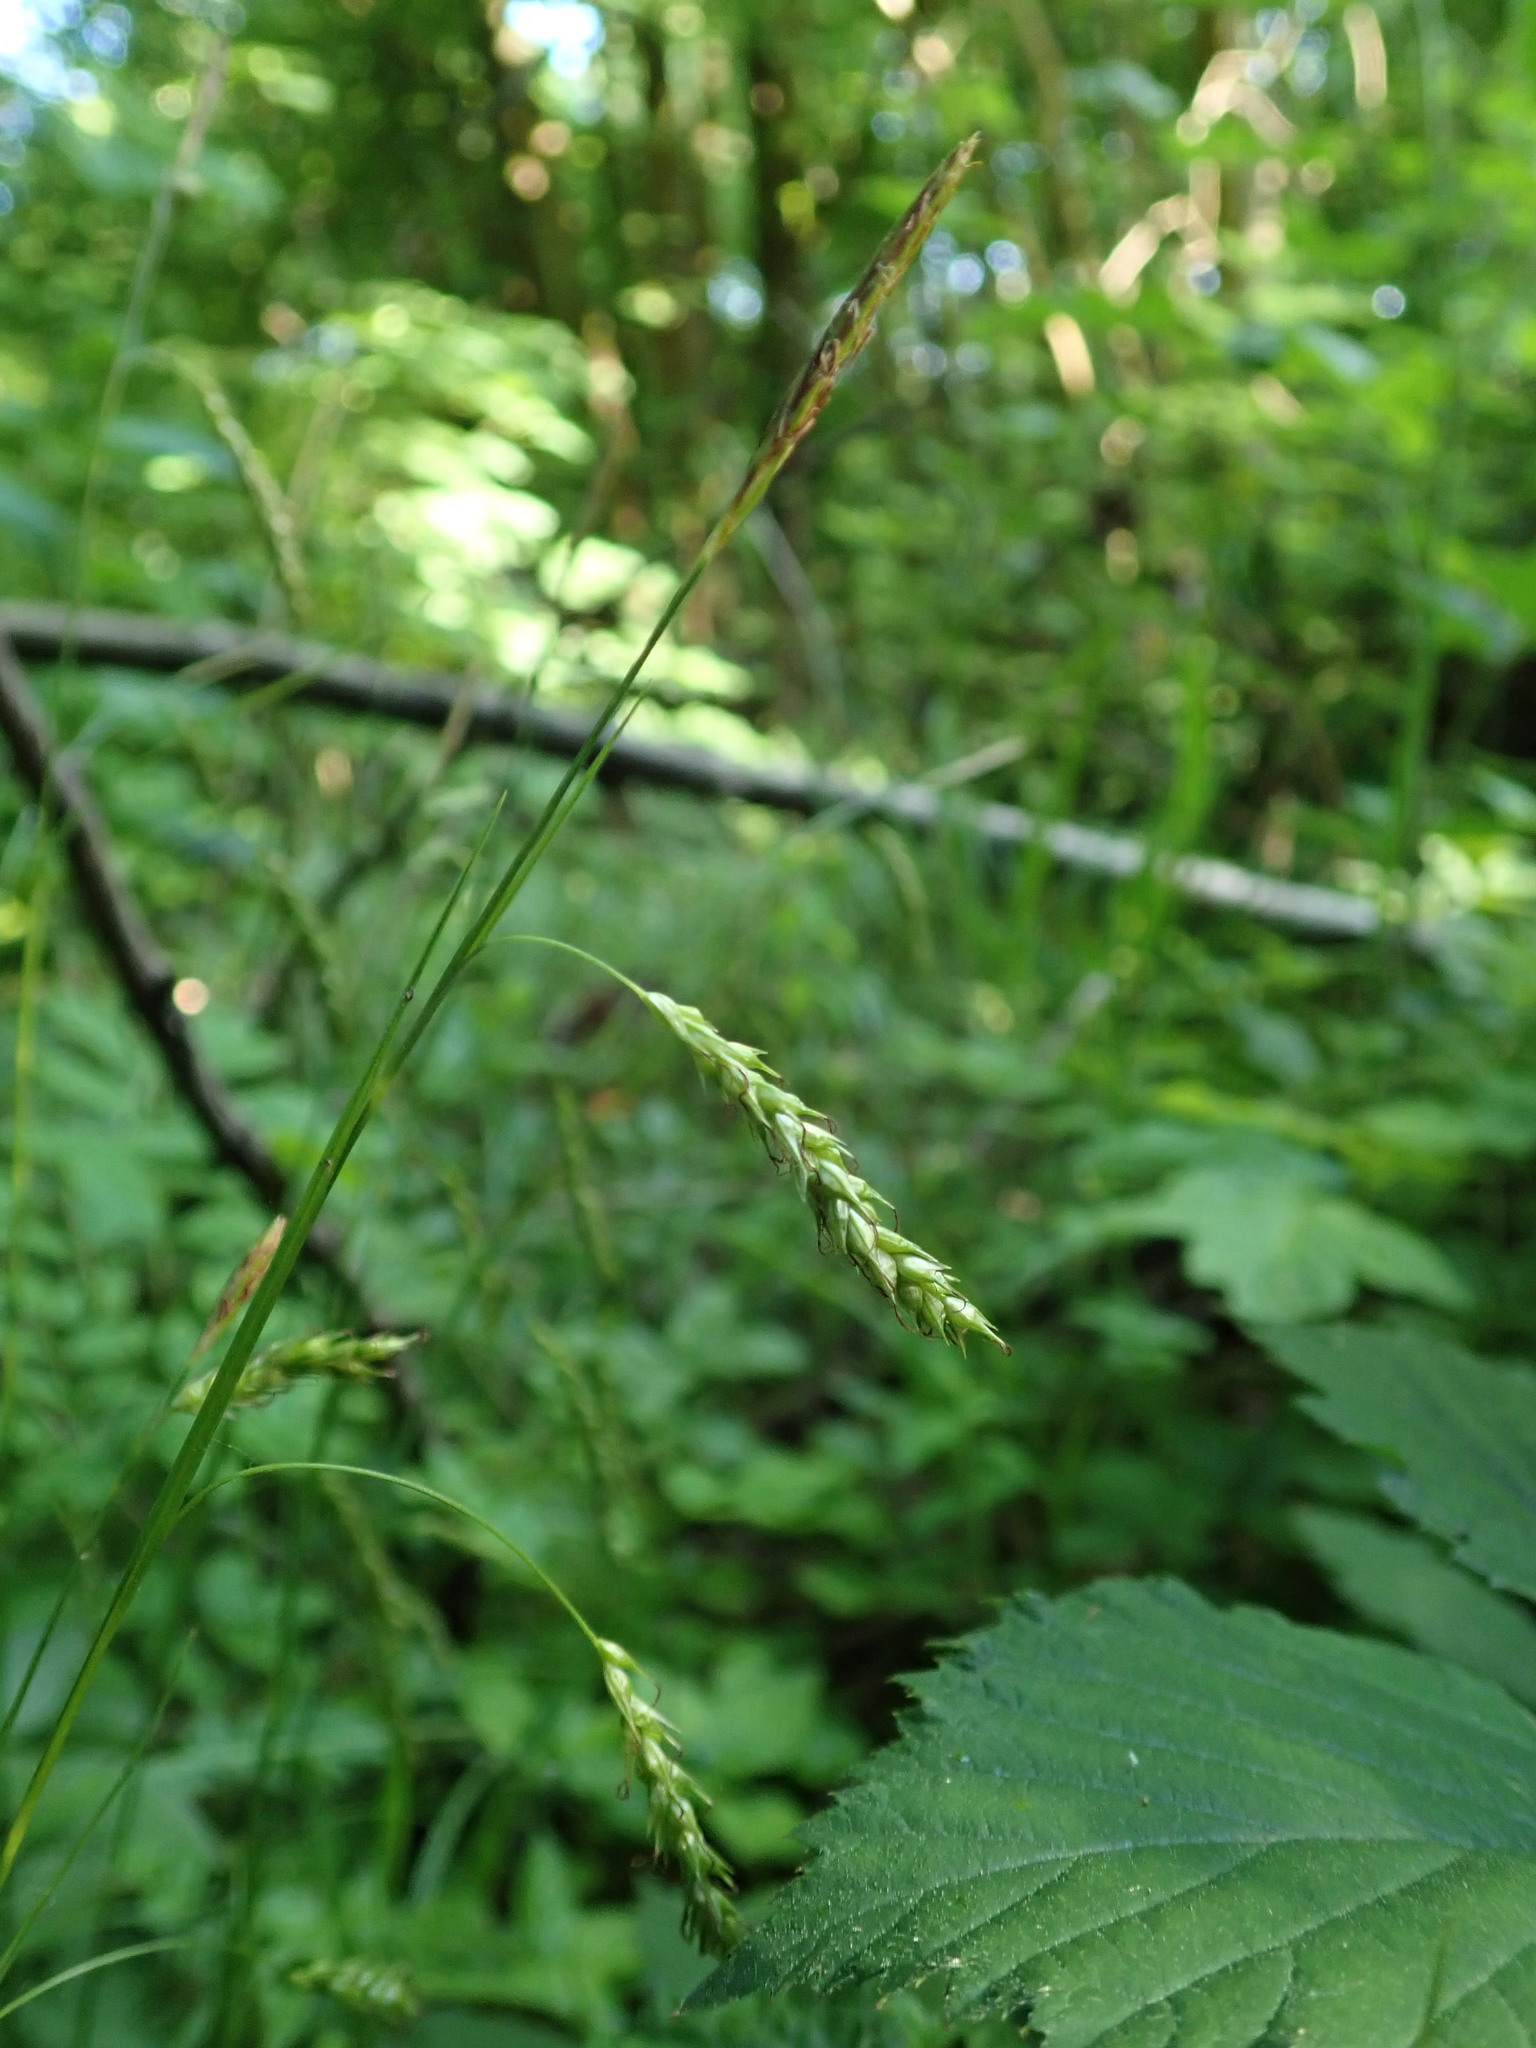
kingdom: Plantae
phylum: Tracheophyta
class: Liliopsida
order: Poales
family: Cyperaceae
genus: Carex
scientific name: Carex sylvatica
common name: Wood-sedge
